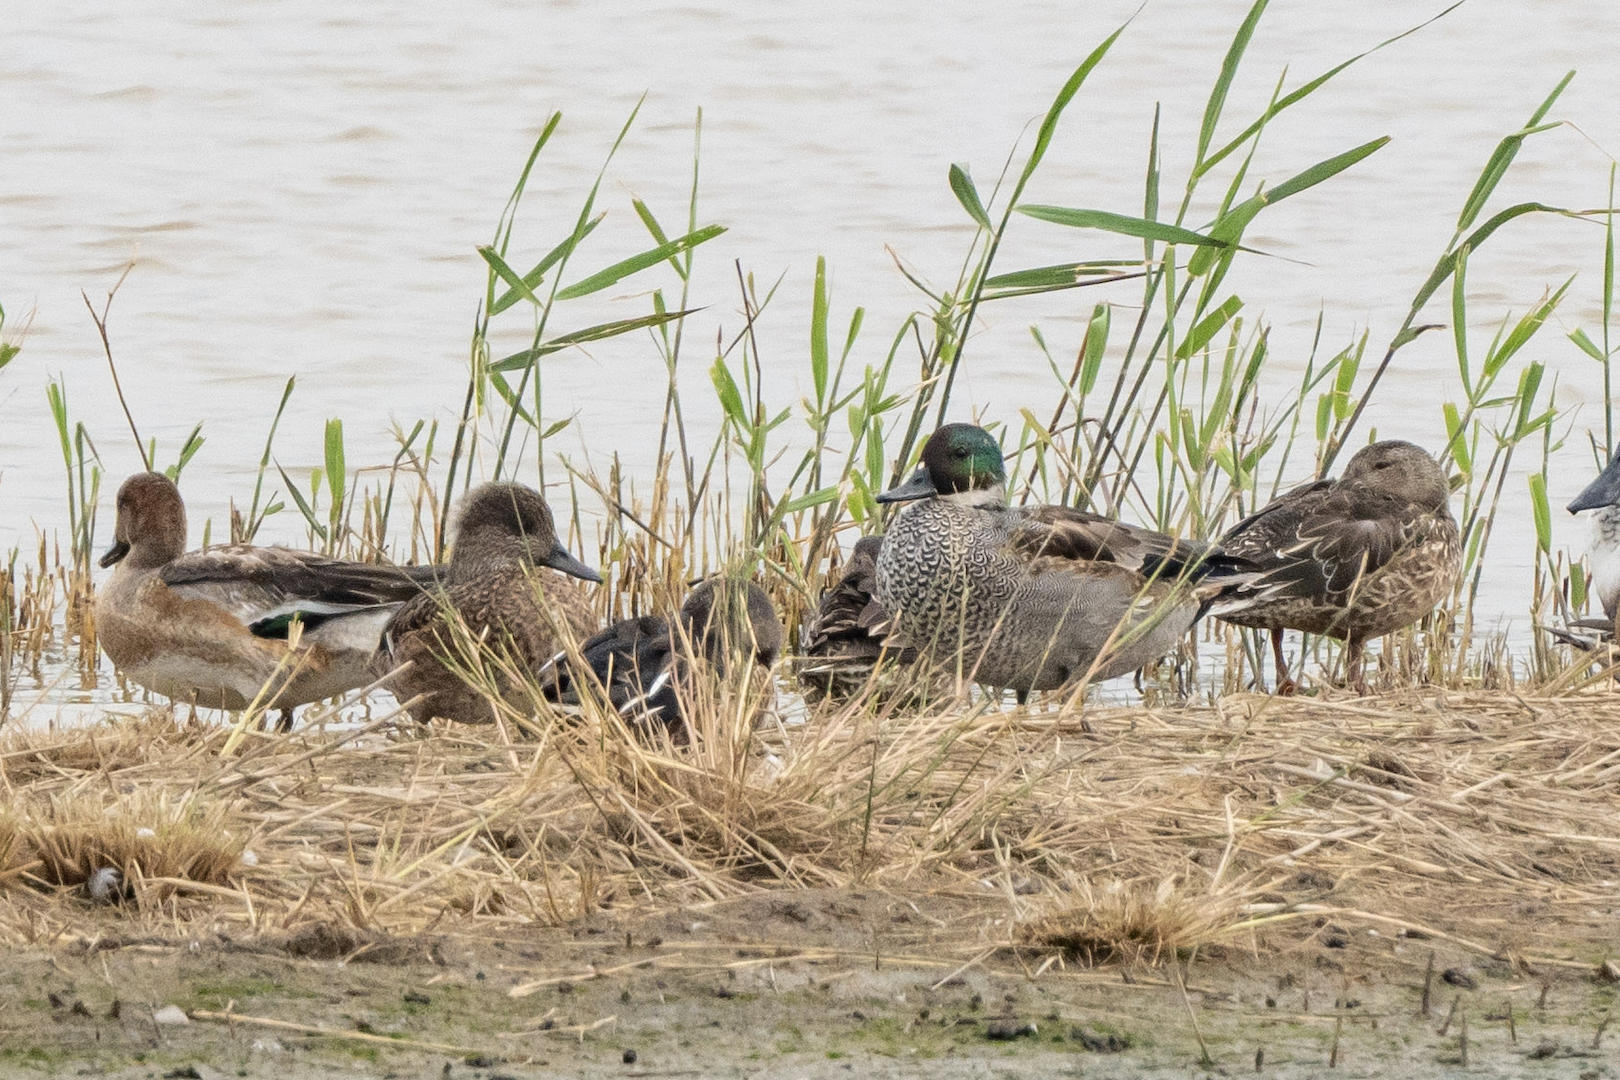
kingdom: Animalia
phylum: Chordata
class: Aves
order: Anseriformes
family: Anatidae
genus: Mareca
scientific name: Mareca falcata
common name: Falcated duck
